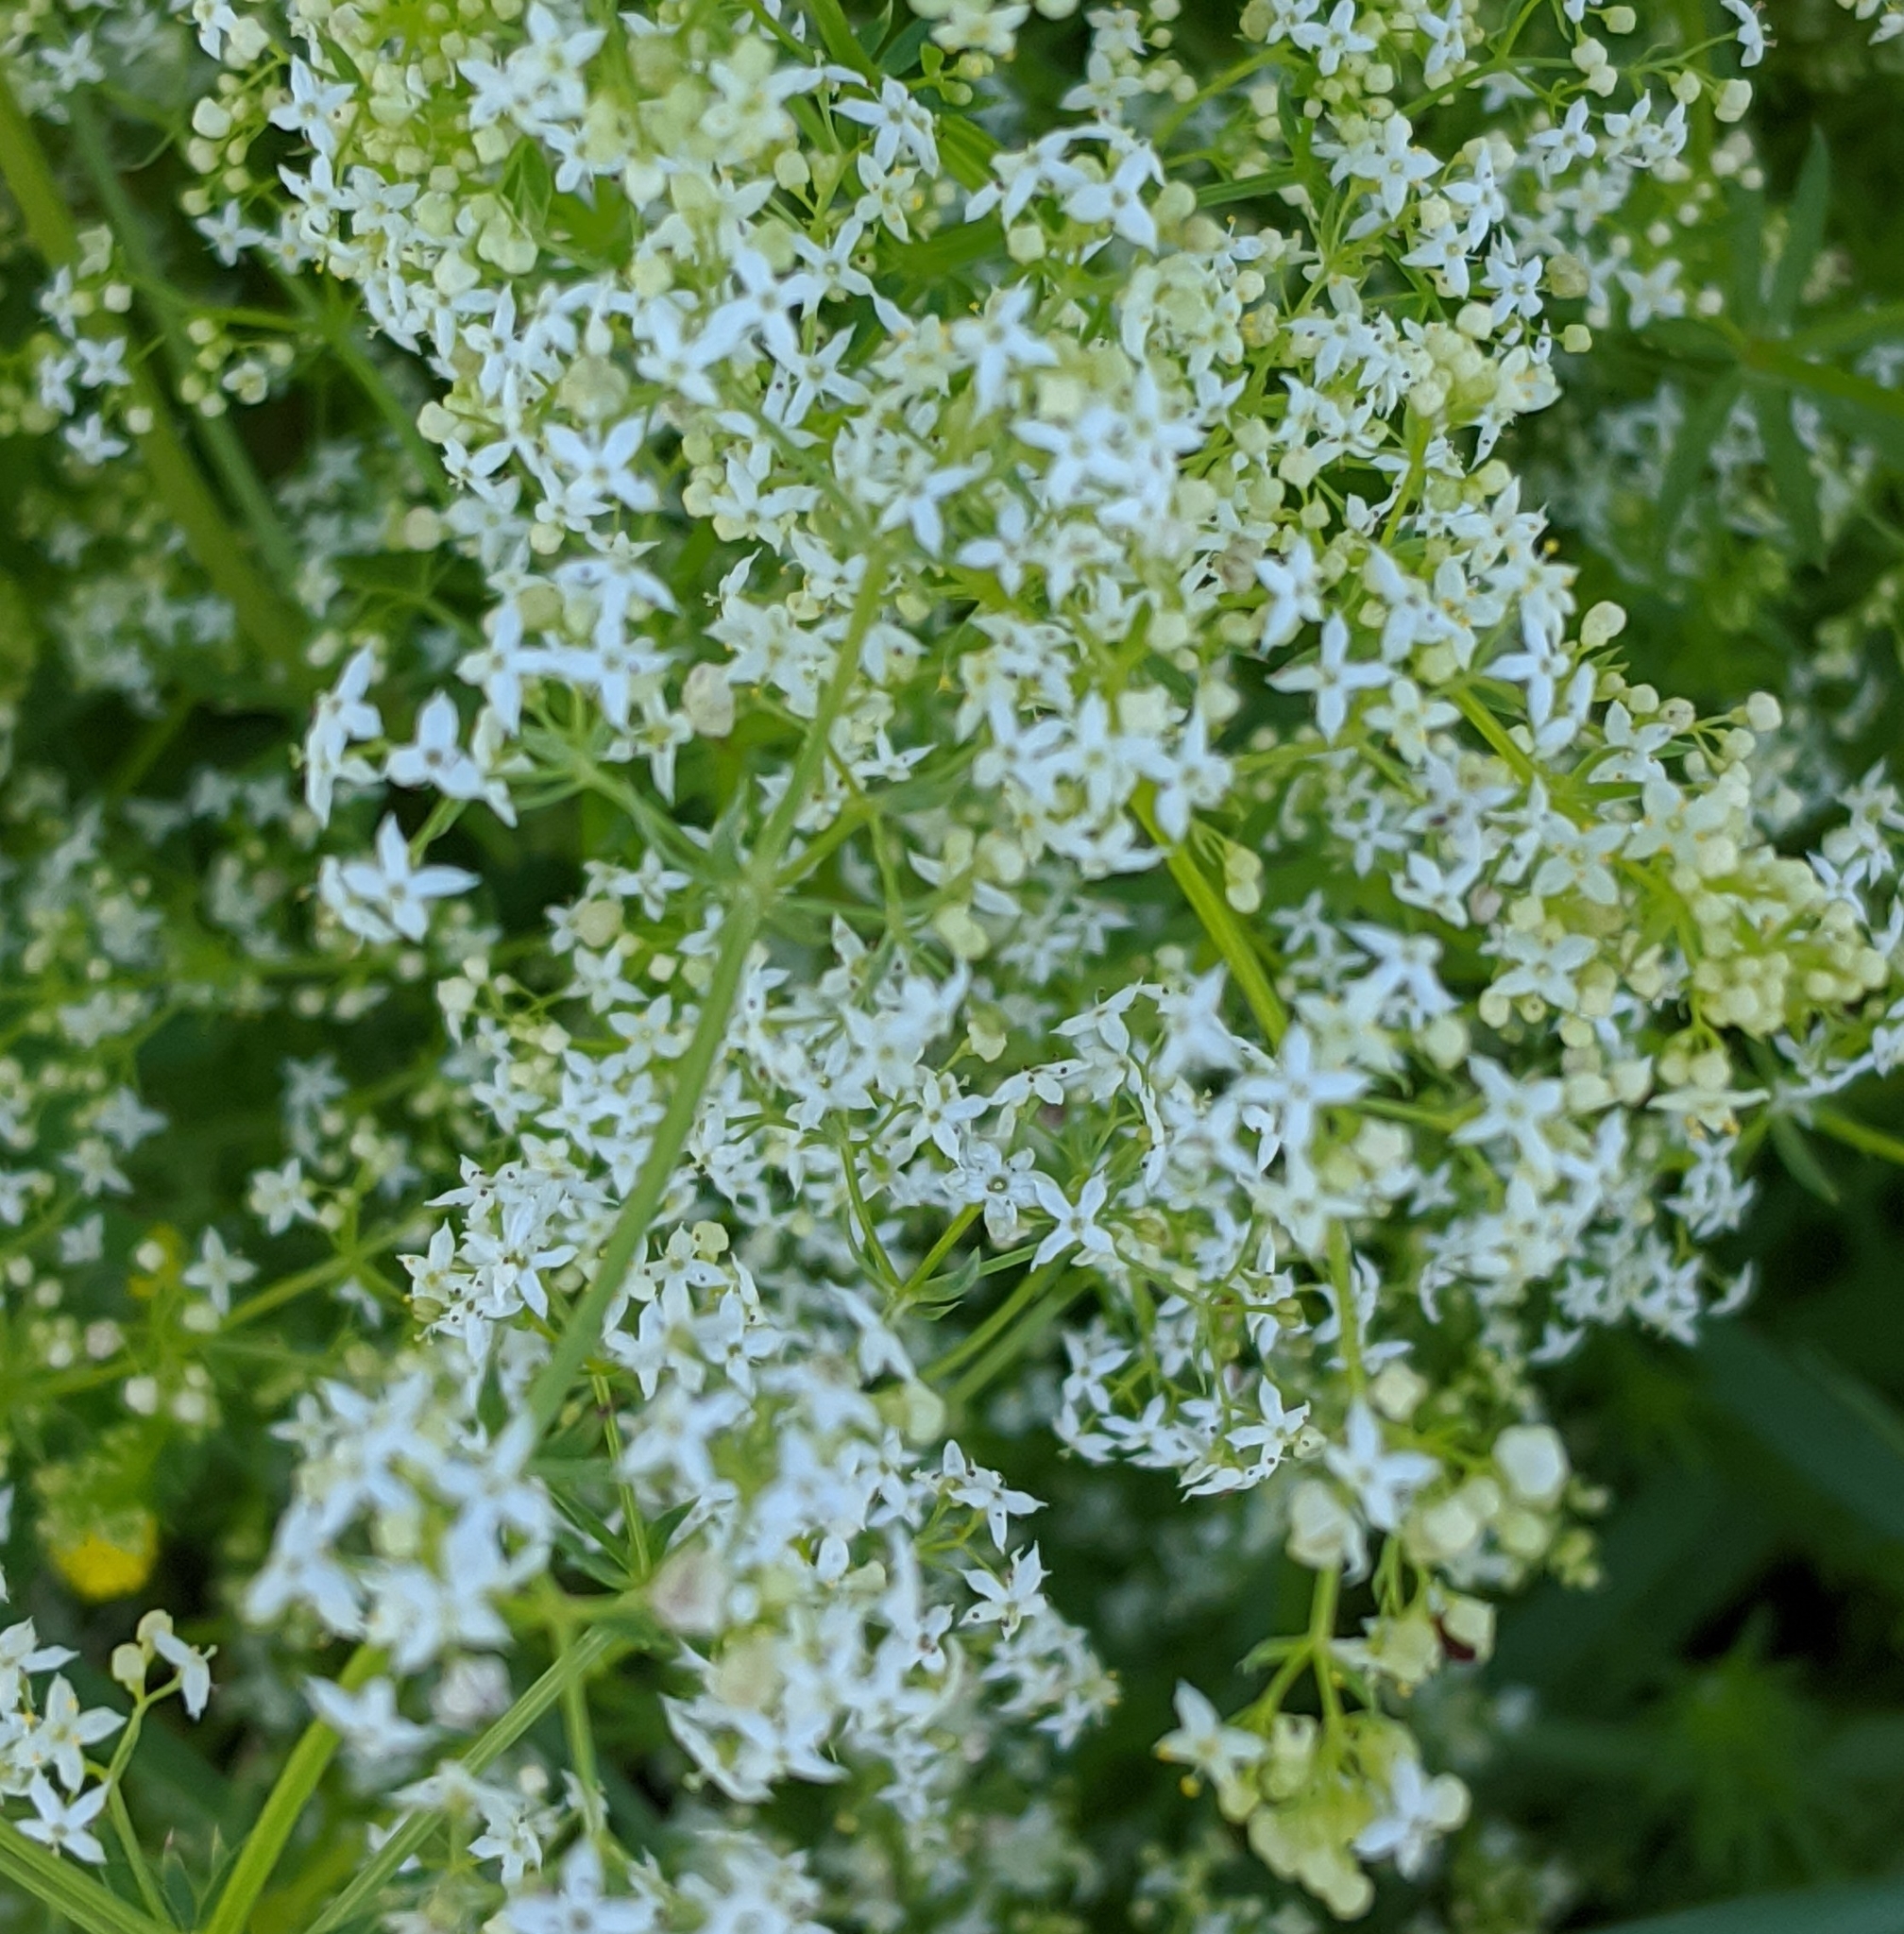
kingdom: Plantae
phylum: Tracheophyta
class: Magnoliopsida
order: Gentianales
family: Rubiaceae
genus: Galium
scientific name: Galium mollugo
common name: Hedge bedstraw
